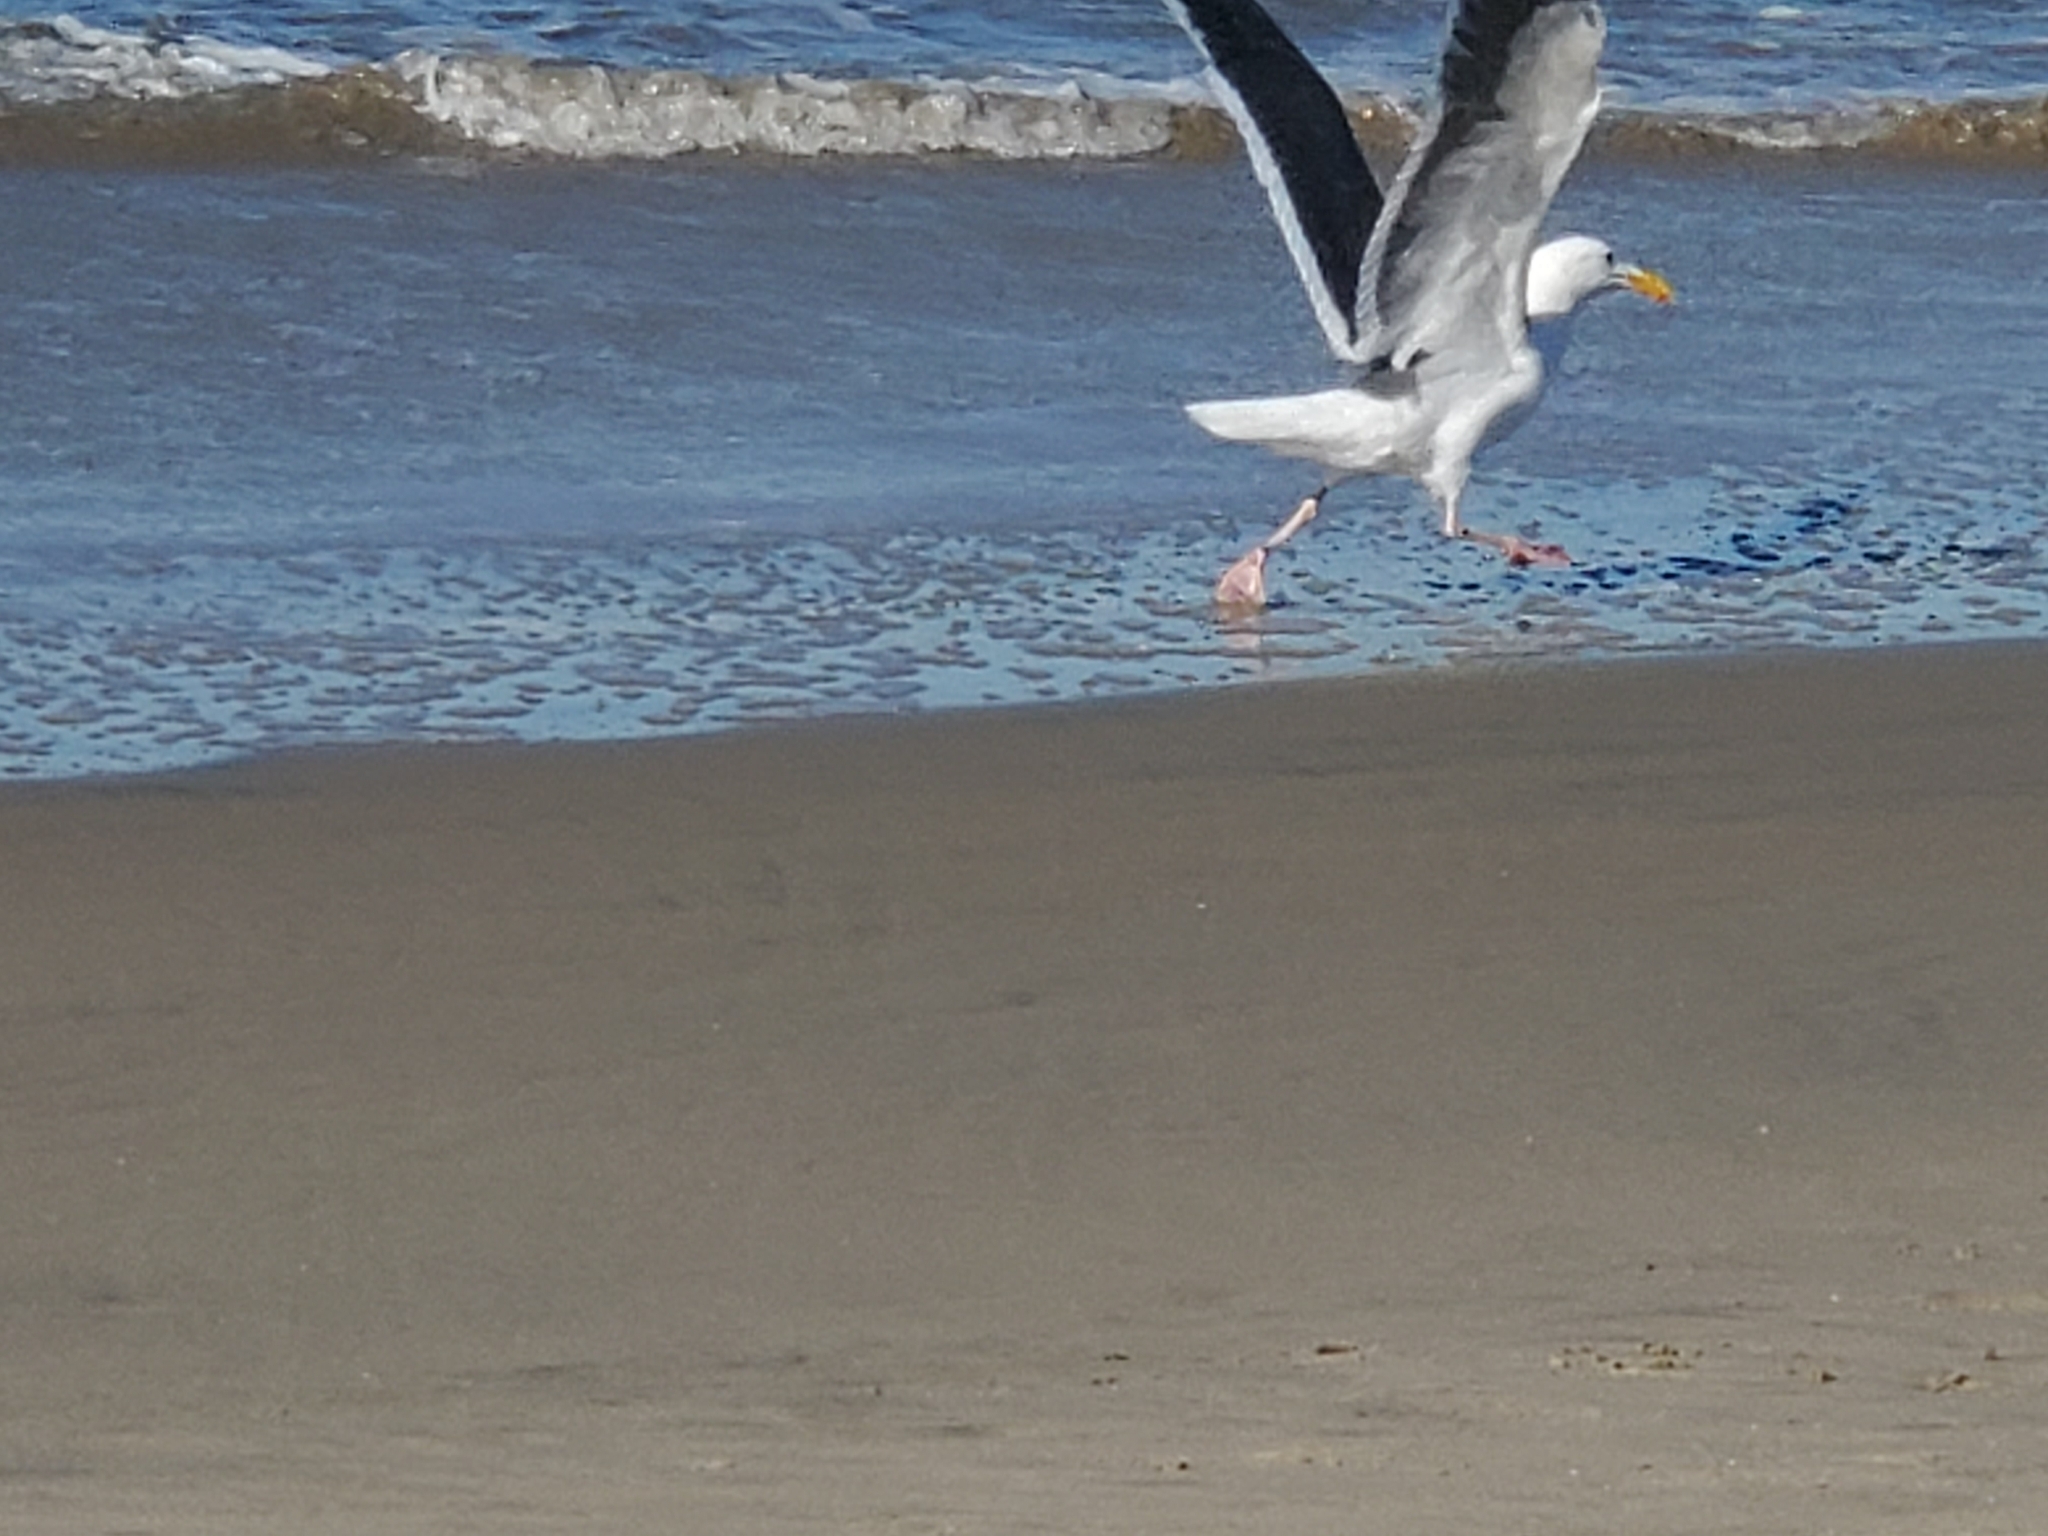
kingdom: Animalia
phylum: Chordata
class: Aves
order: Charadriiformes
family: Laridae
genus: Larus
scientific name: Larus occidentalis
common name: Western gull
